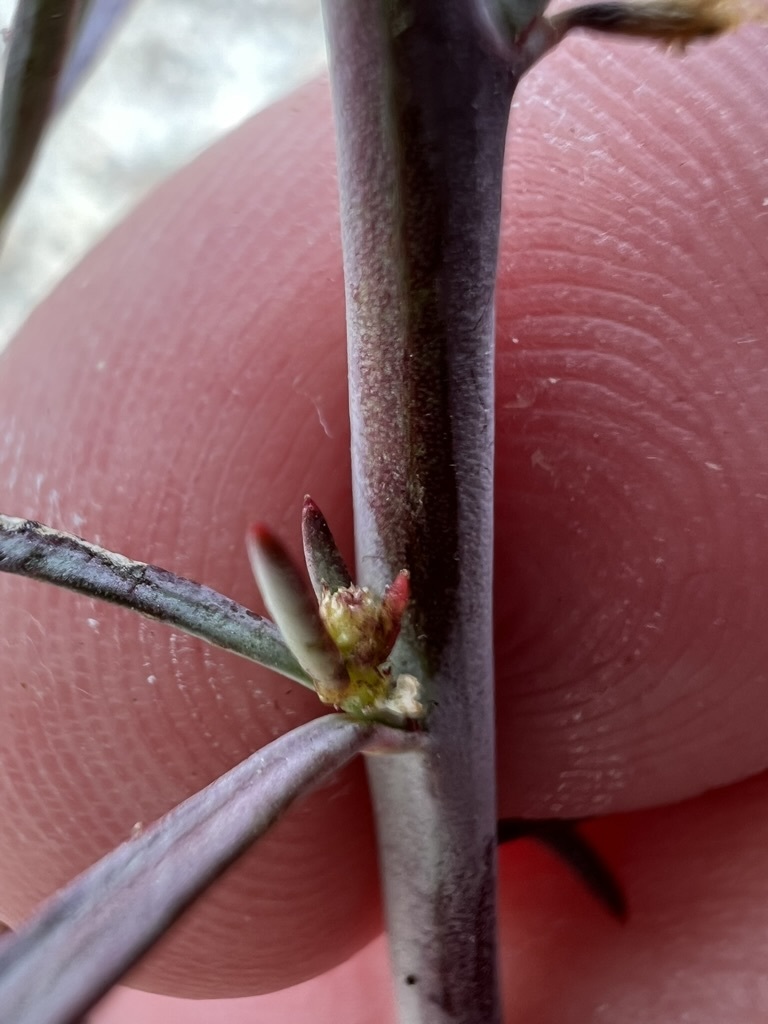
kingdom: Plantae
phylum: Tracheophyta
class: Magnoliopsida
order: Malpighiales
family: Euphorbiaceae
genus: Stillingia
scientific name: Stillingia linearifolia
